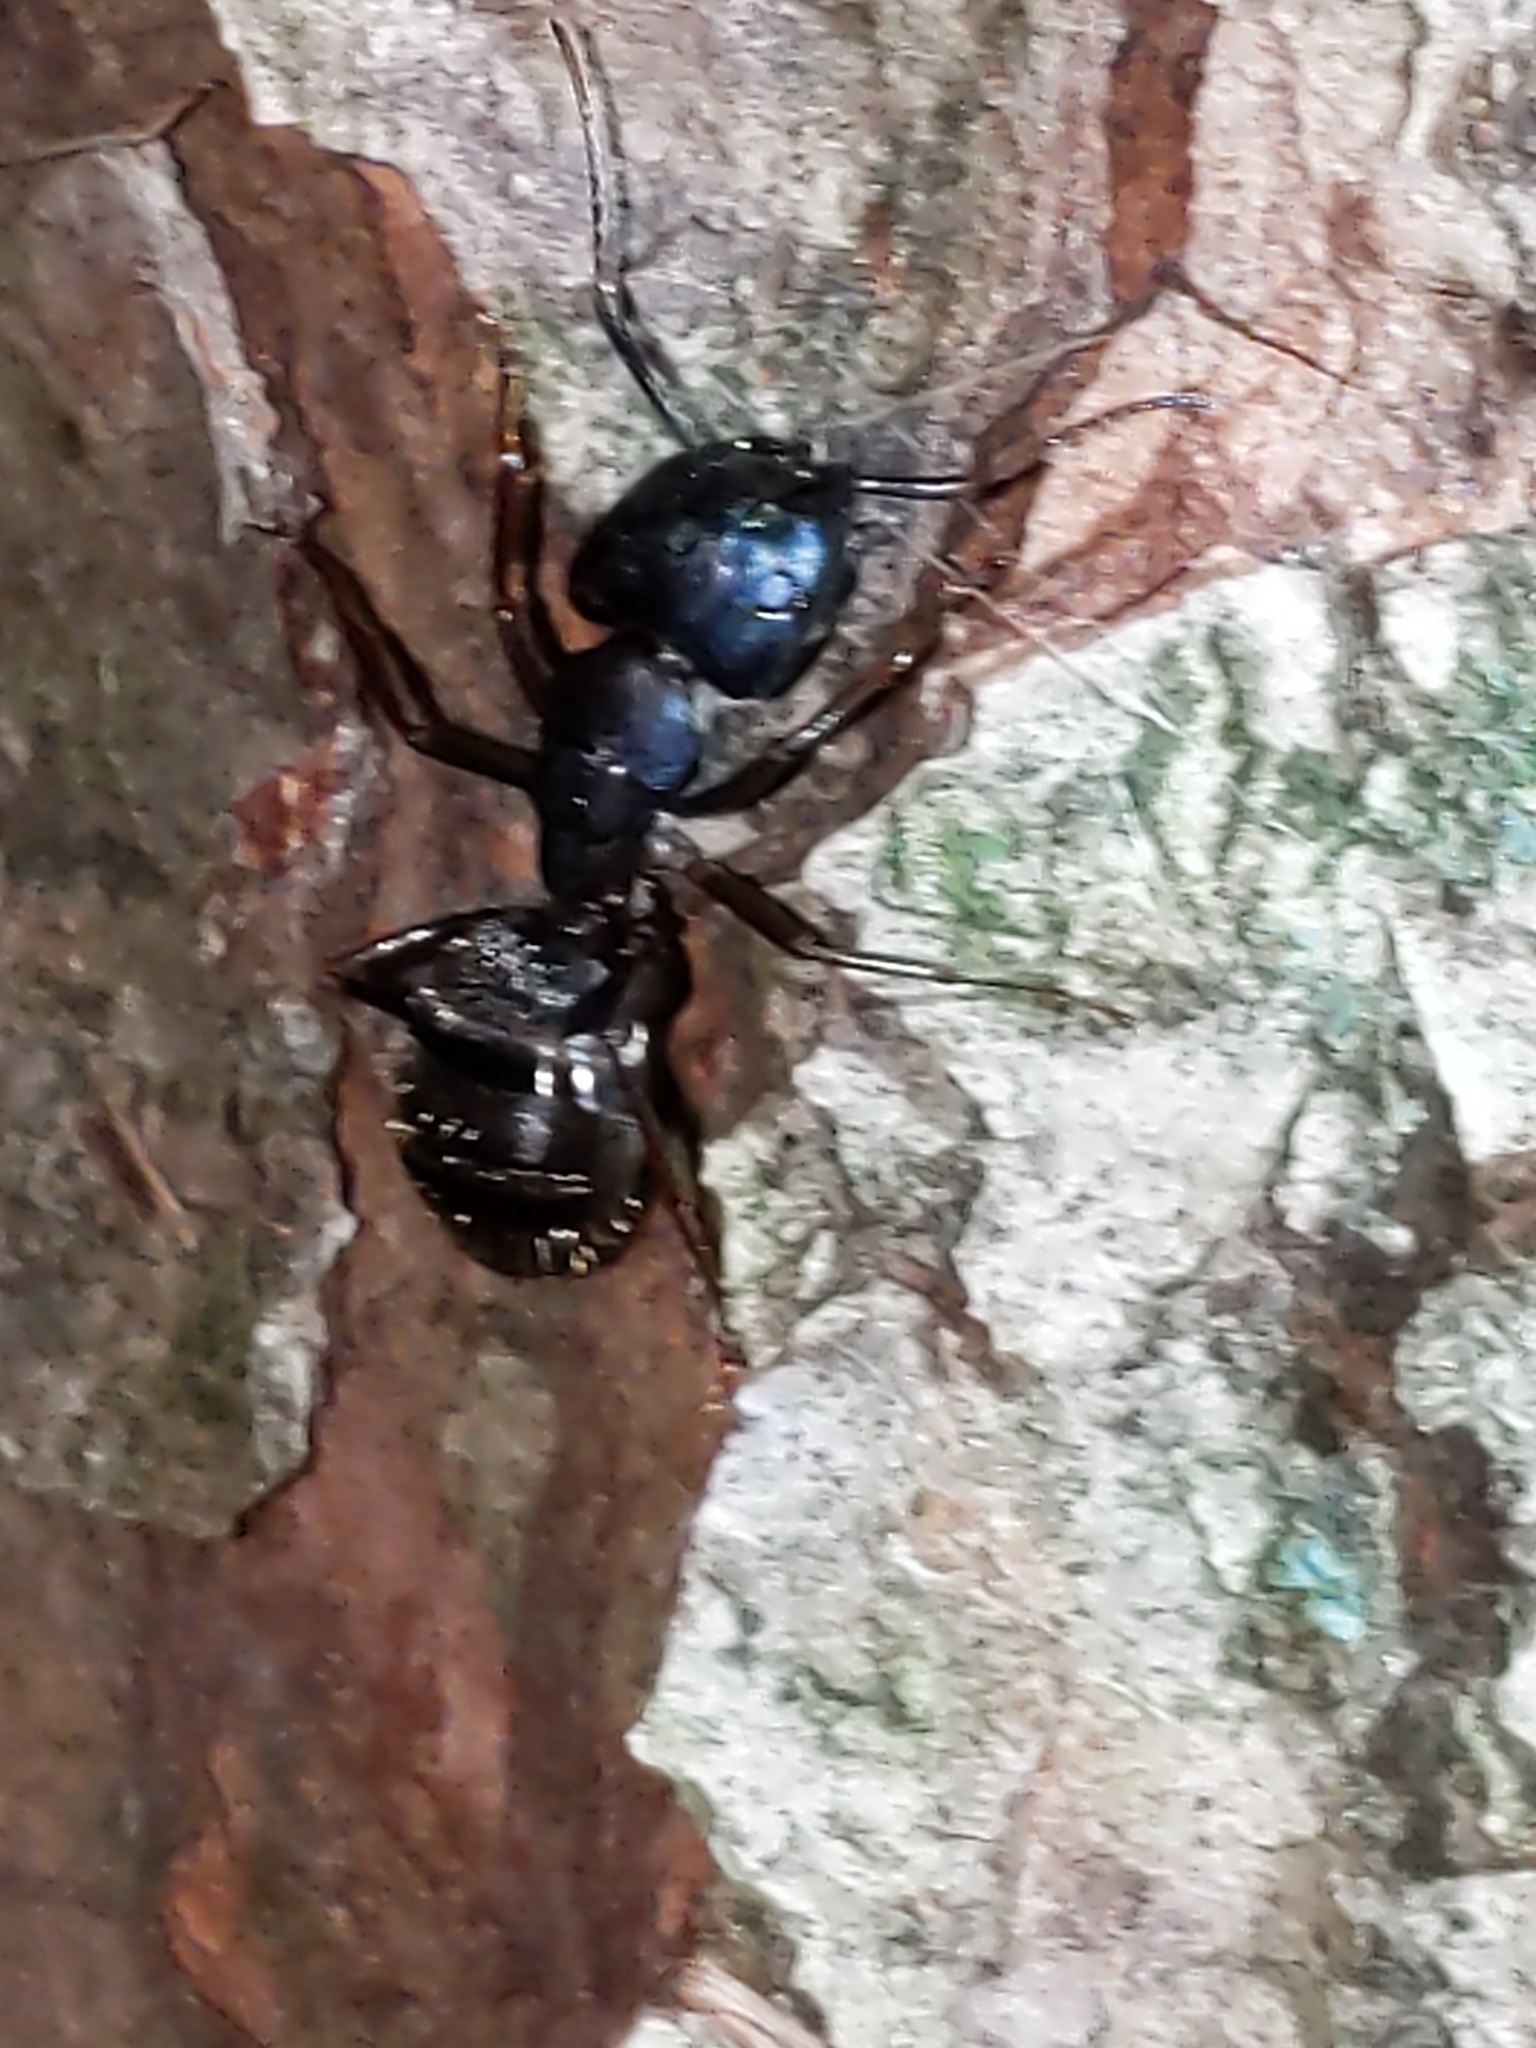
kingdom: Animalia
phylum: Arthropoda
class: Insecta
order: Hymenoptera
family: Formicidae
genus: Camponotus
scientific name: Camponotus pennsylvanicus
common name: Black carpenter ant
